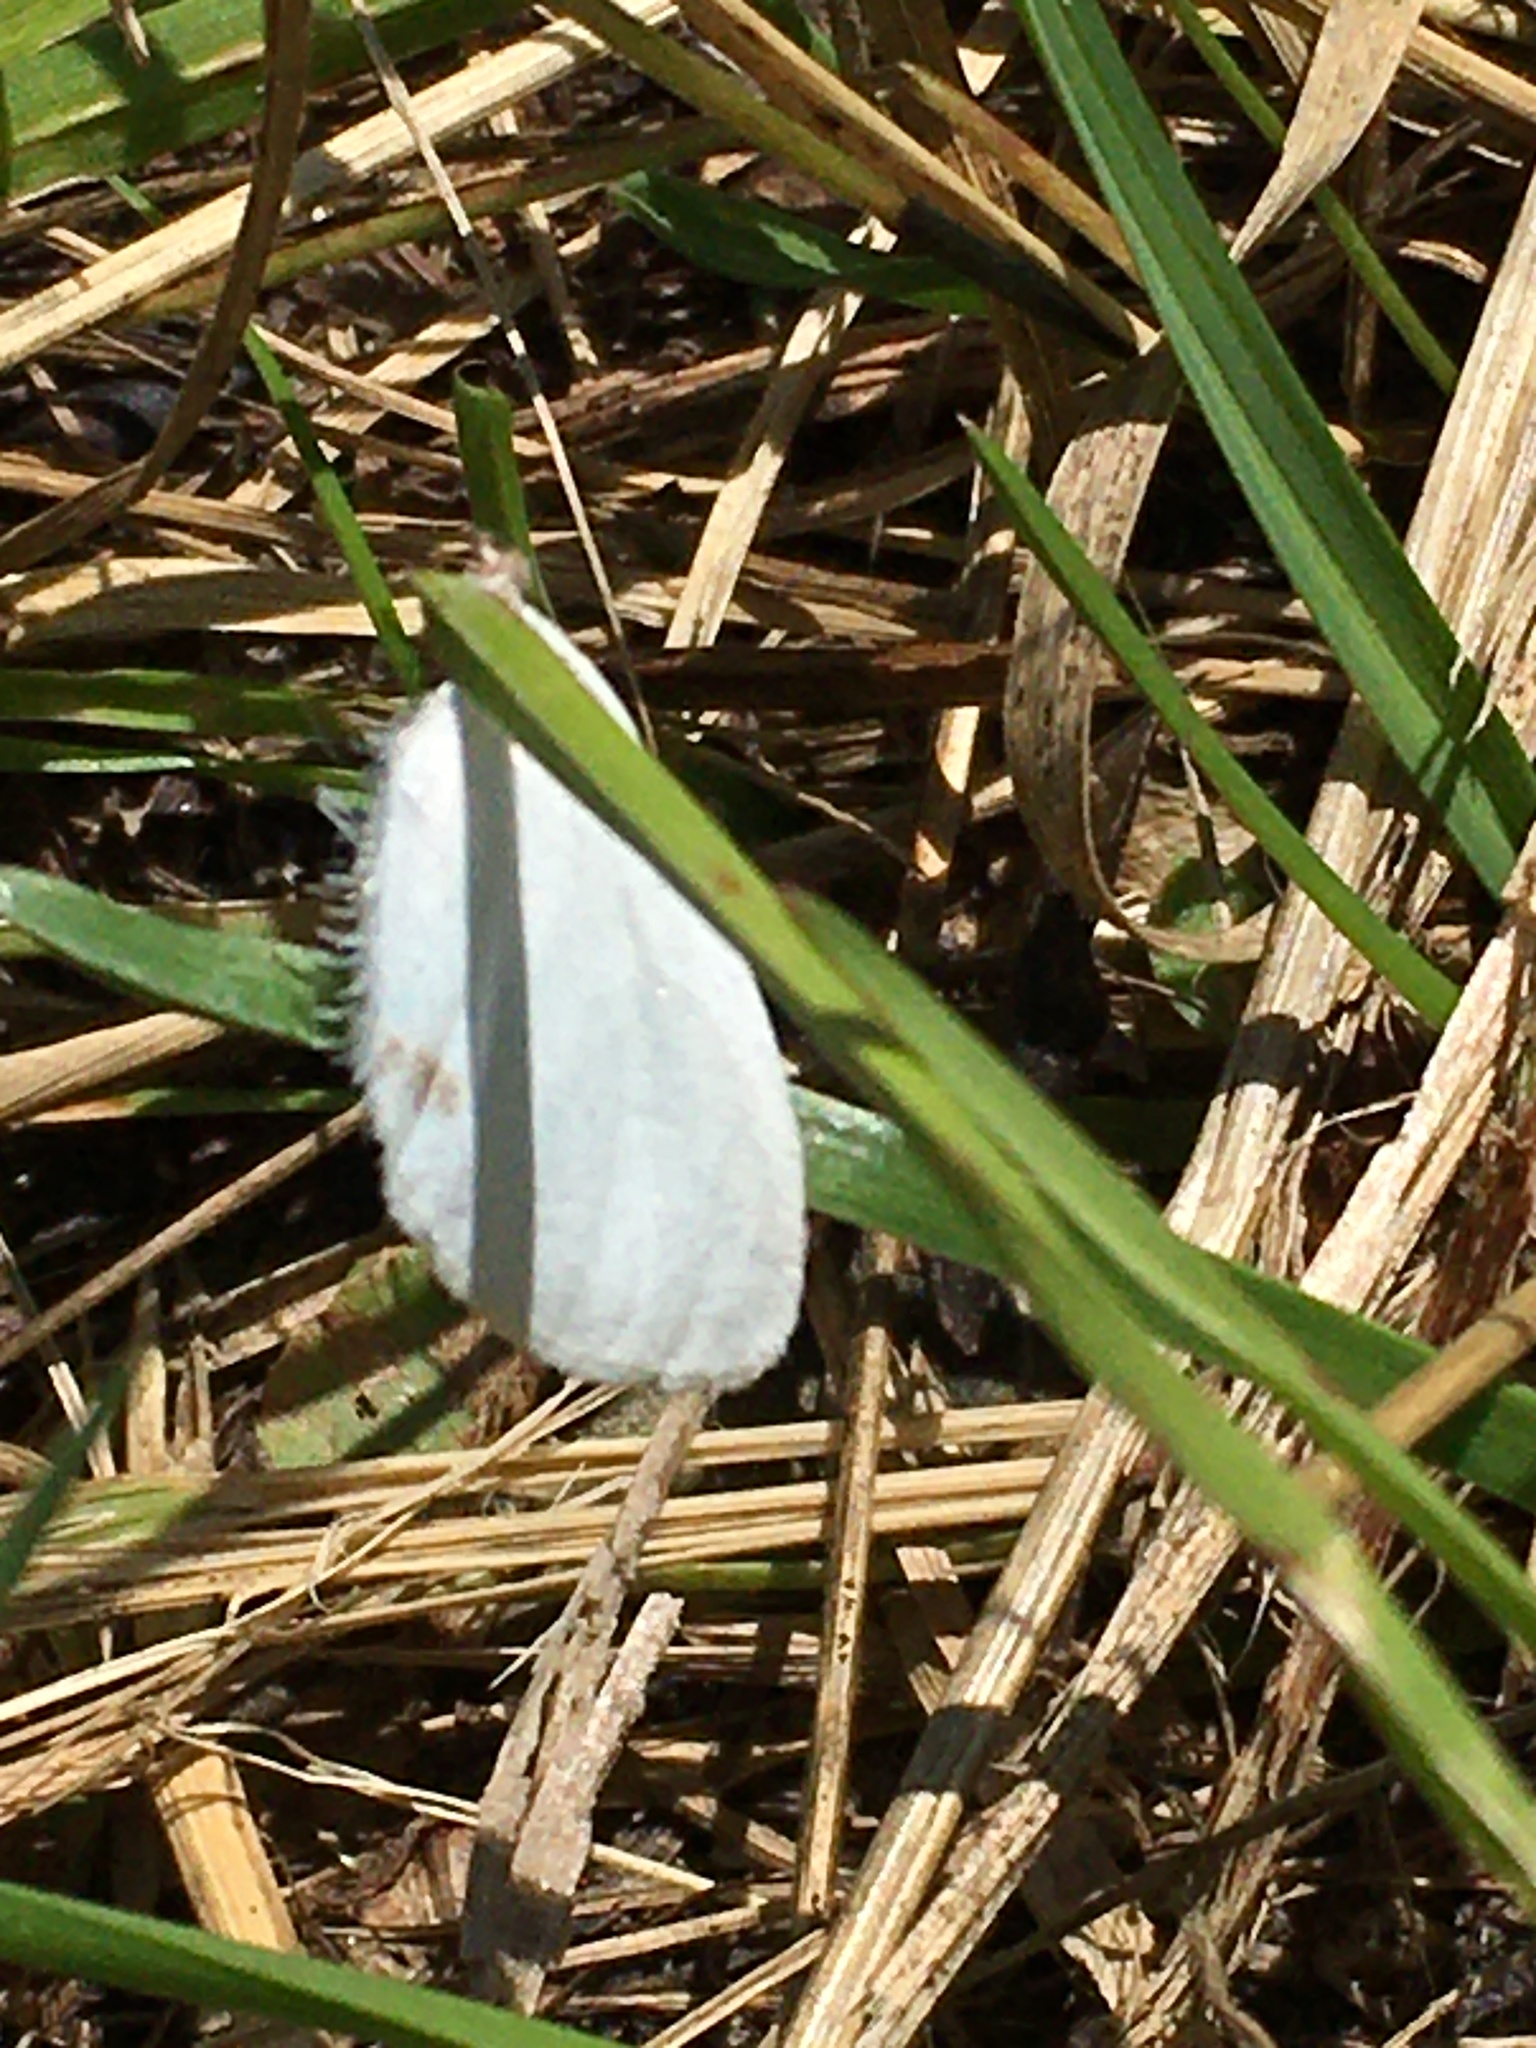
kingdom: Animalia
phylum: Arthropoda
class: Insecta
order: Lepidoptera
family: Erebidae
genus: Sphrageidus
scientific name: Sphrageidus similis
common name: Yellow-tail
